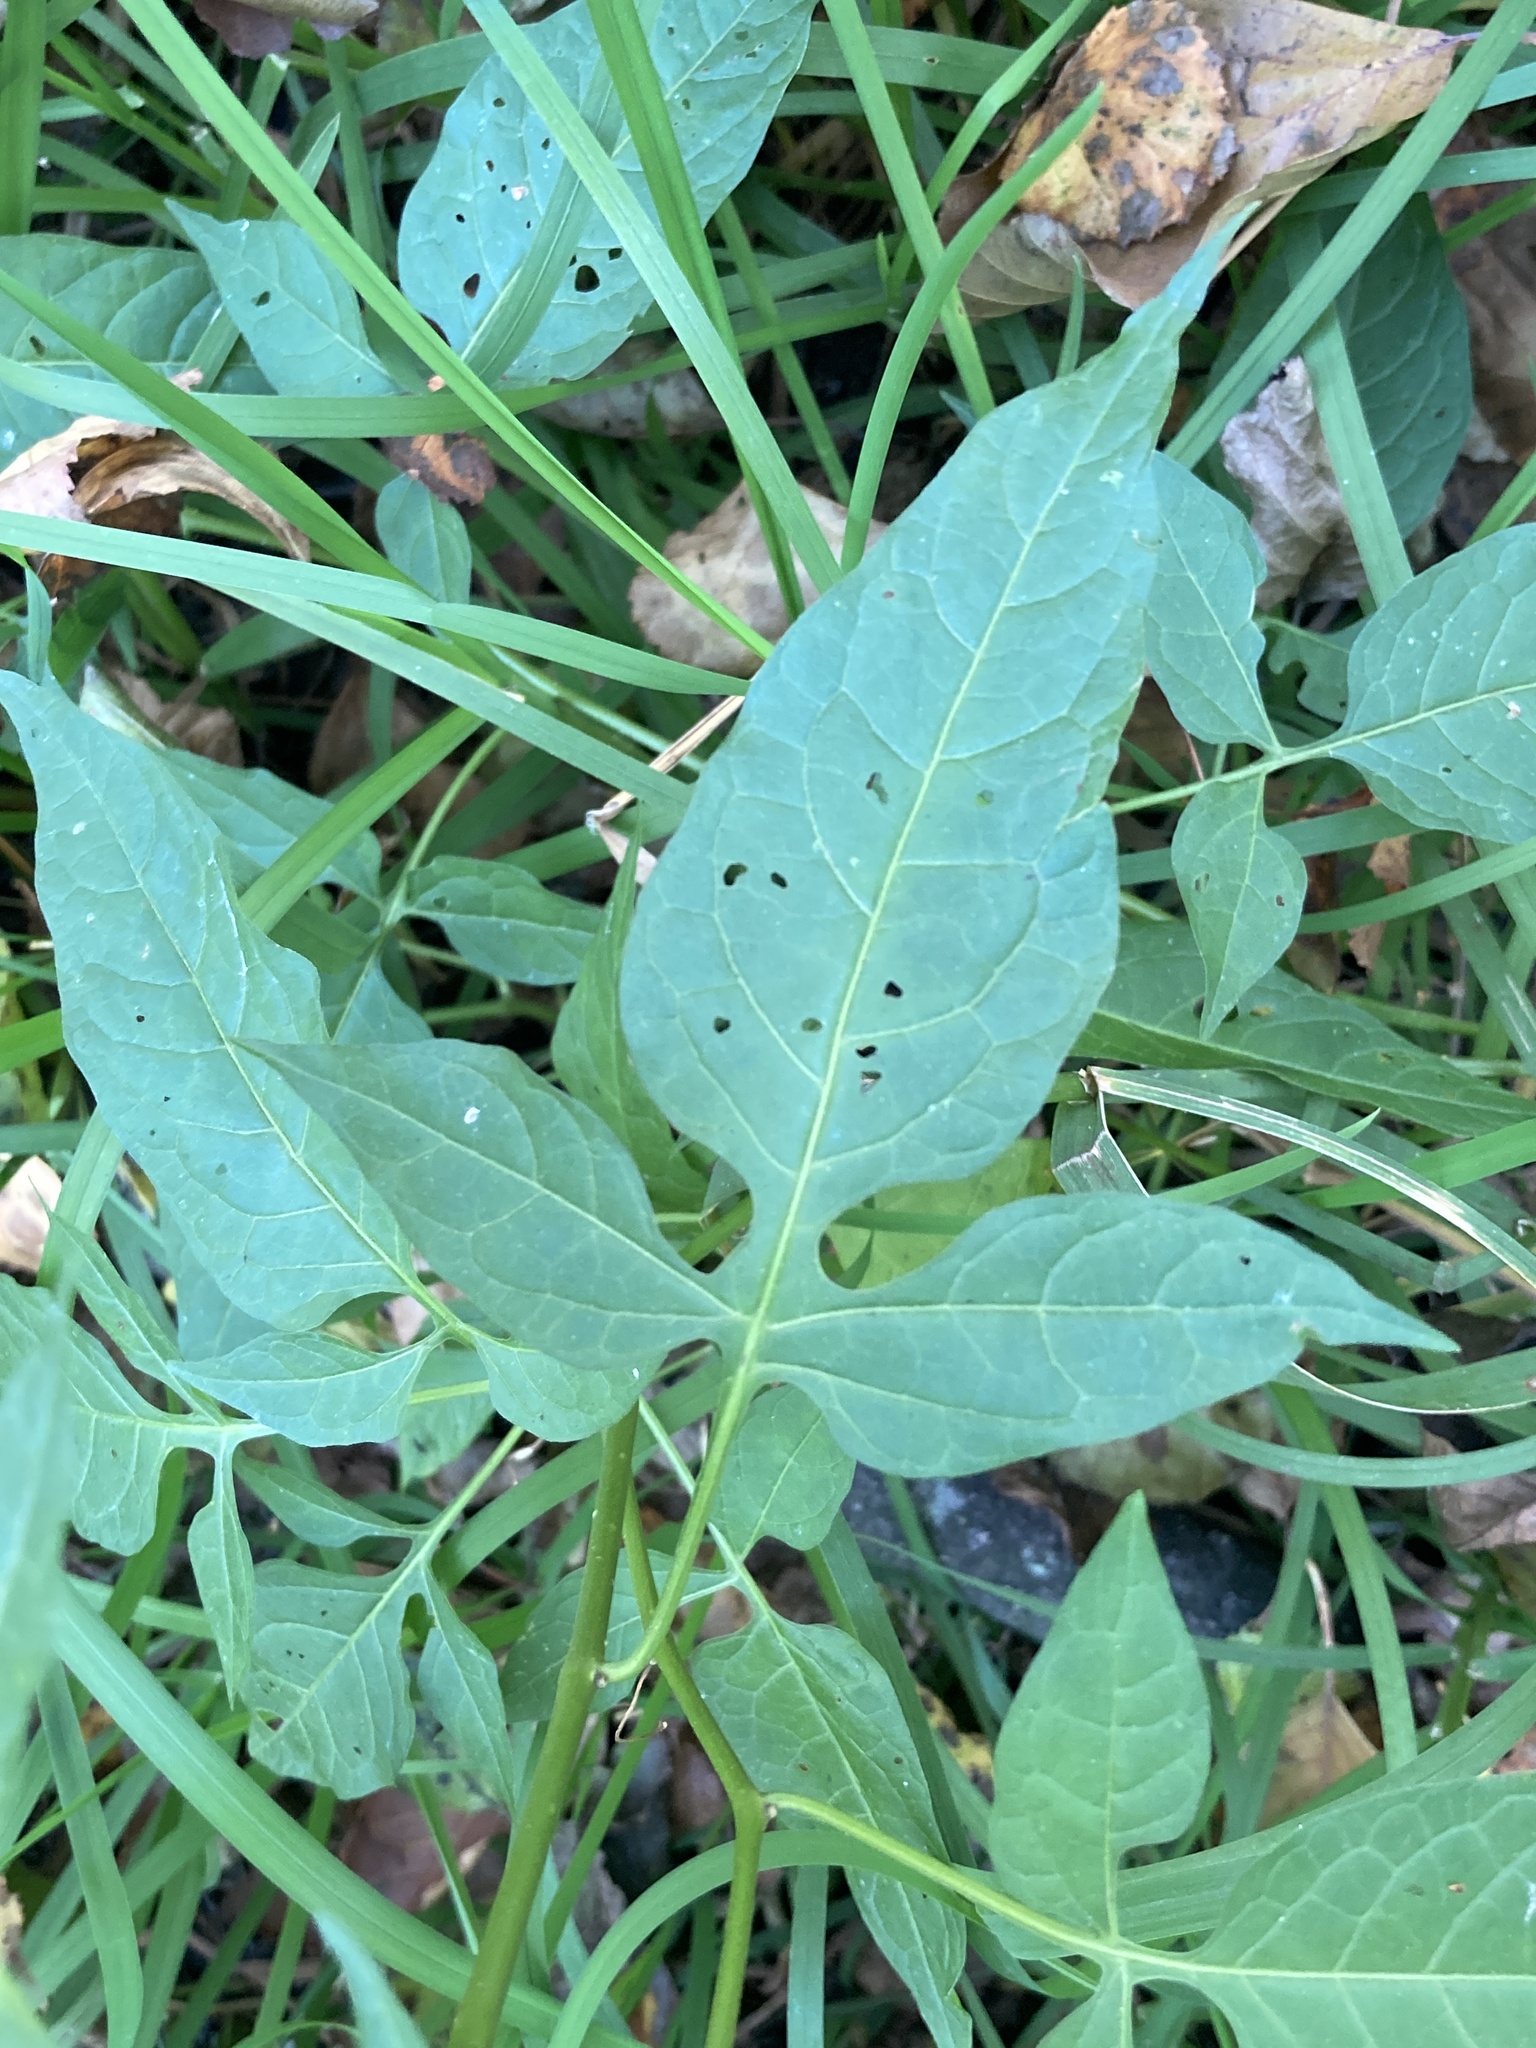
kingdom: Plantae
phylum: Tracheophyta
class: Magnoliopsida
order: Solanales
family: Solanaceae
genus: Solanum
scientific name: Solanum dulcamara
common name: Climbing nightshade
